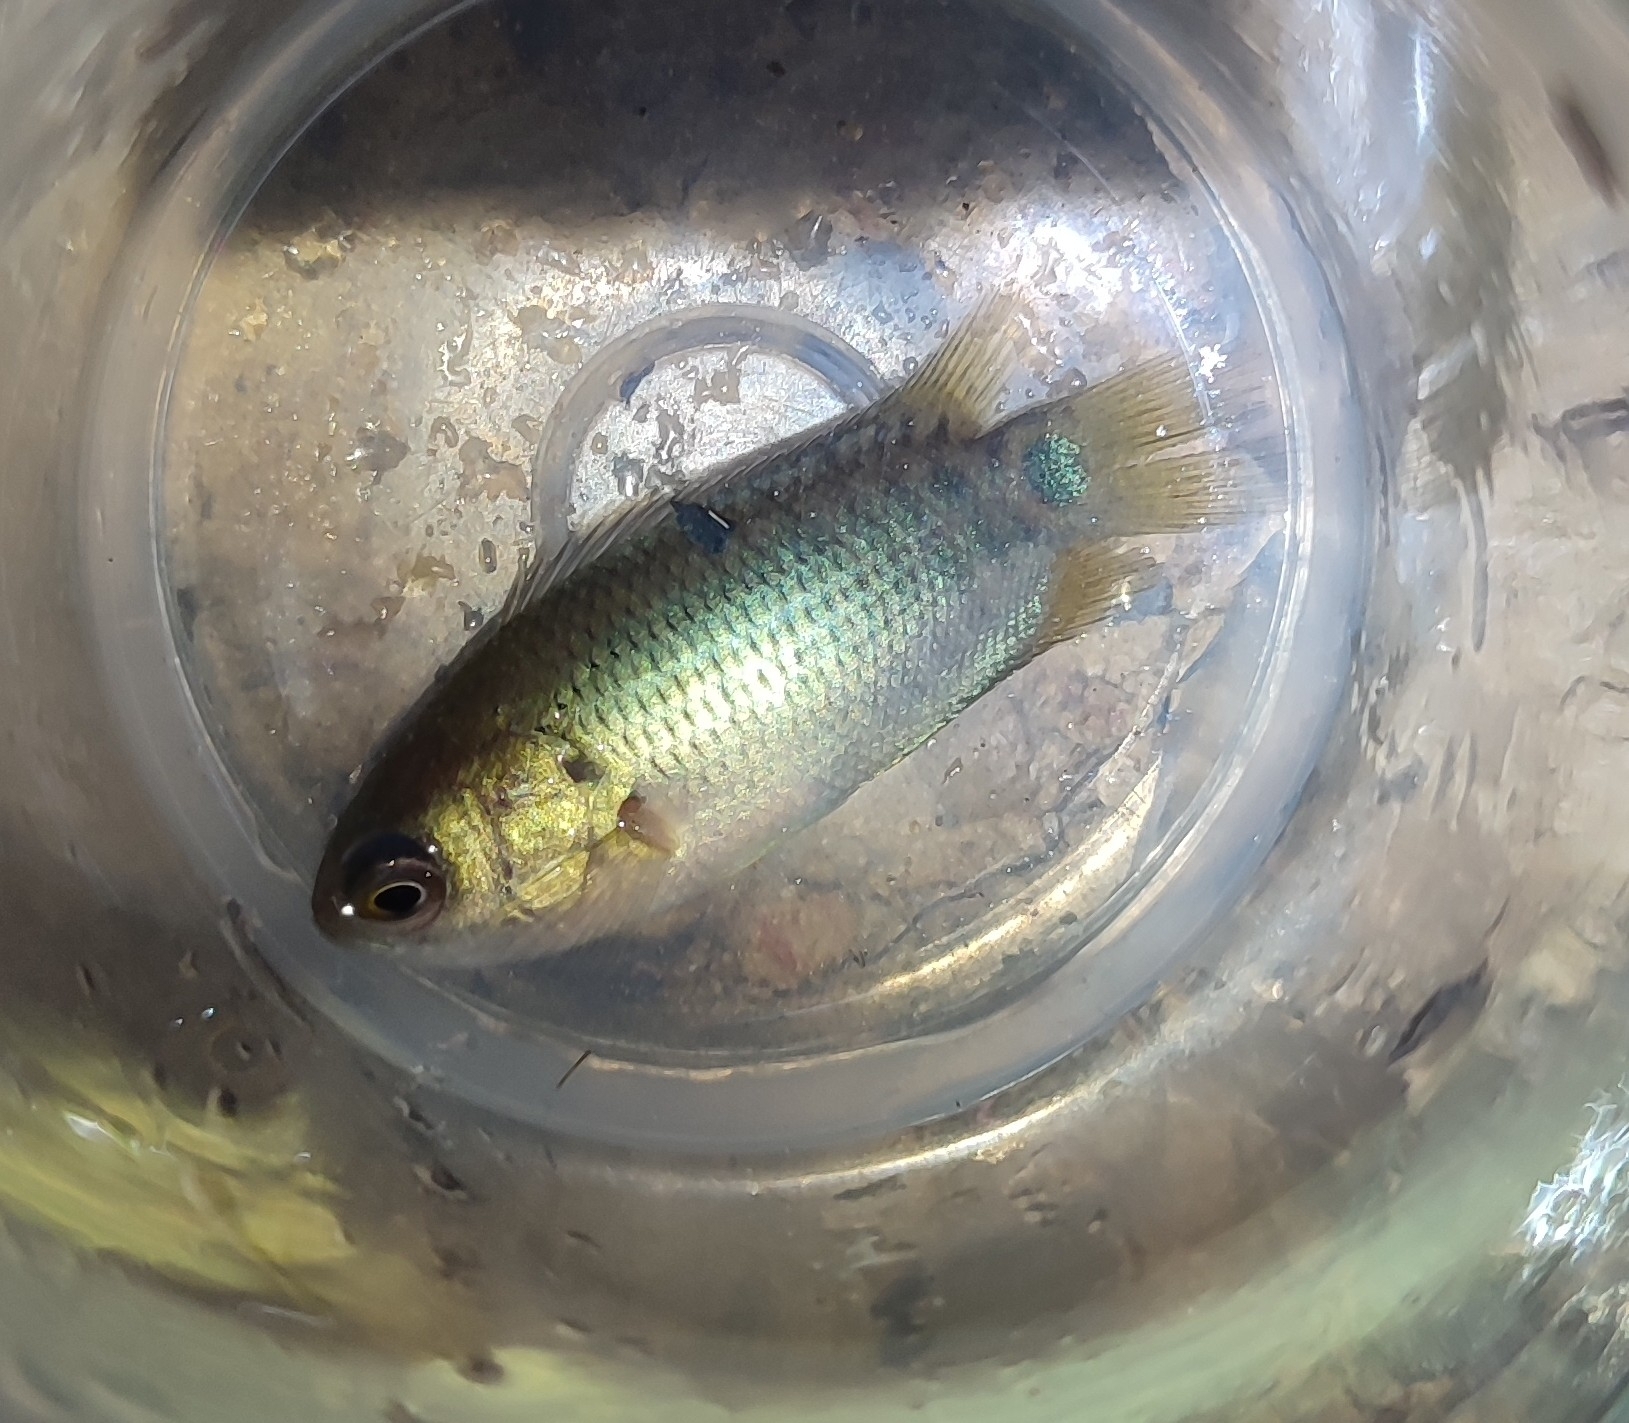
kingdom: Animalia
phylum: Chordata
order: Perciformes
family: Anabantidae
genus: Anabas
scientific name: Anabas testudineus
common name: Climbing perch
